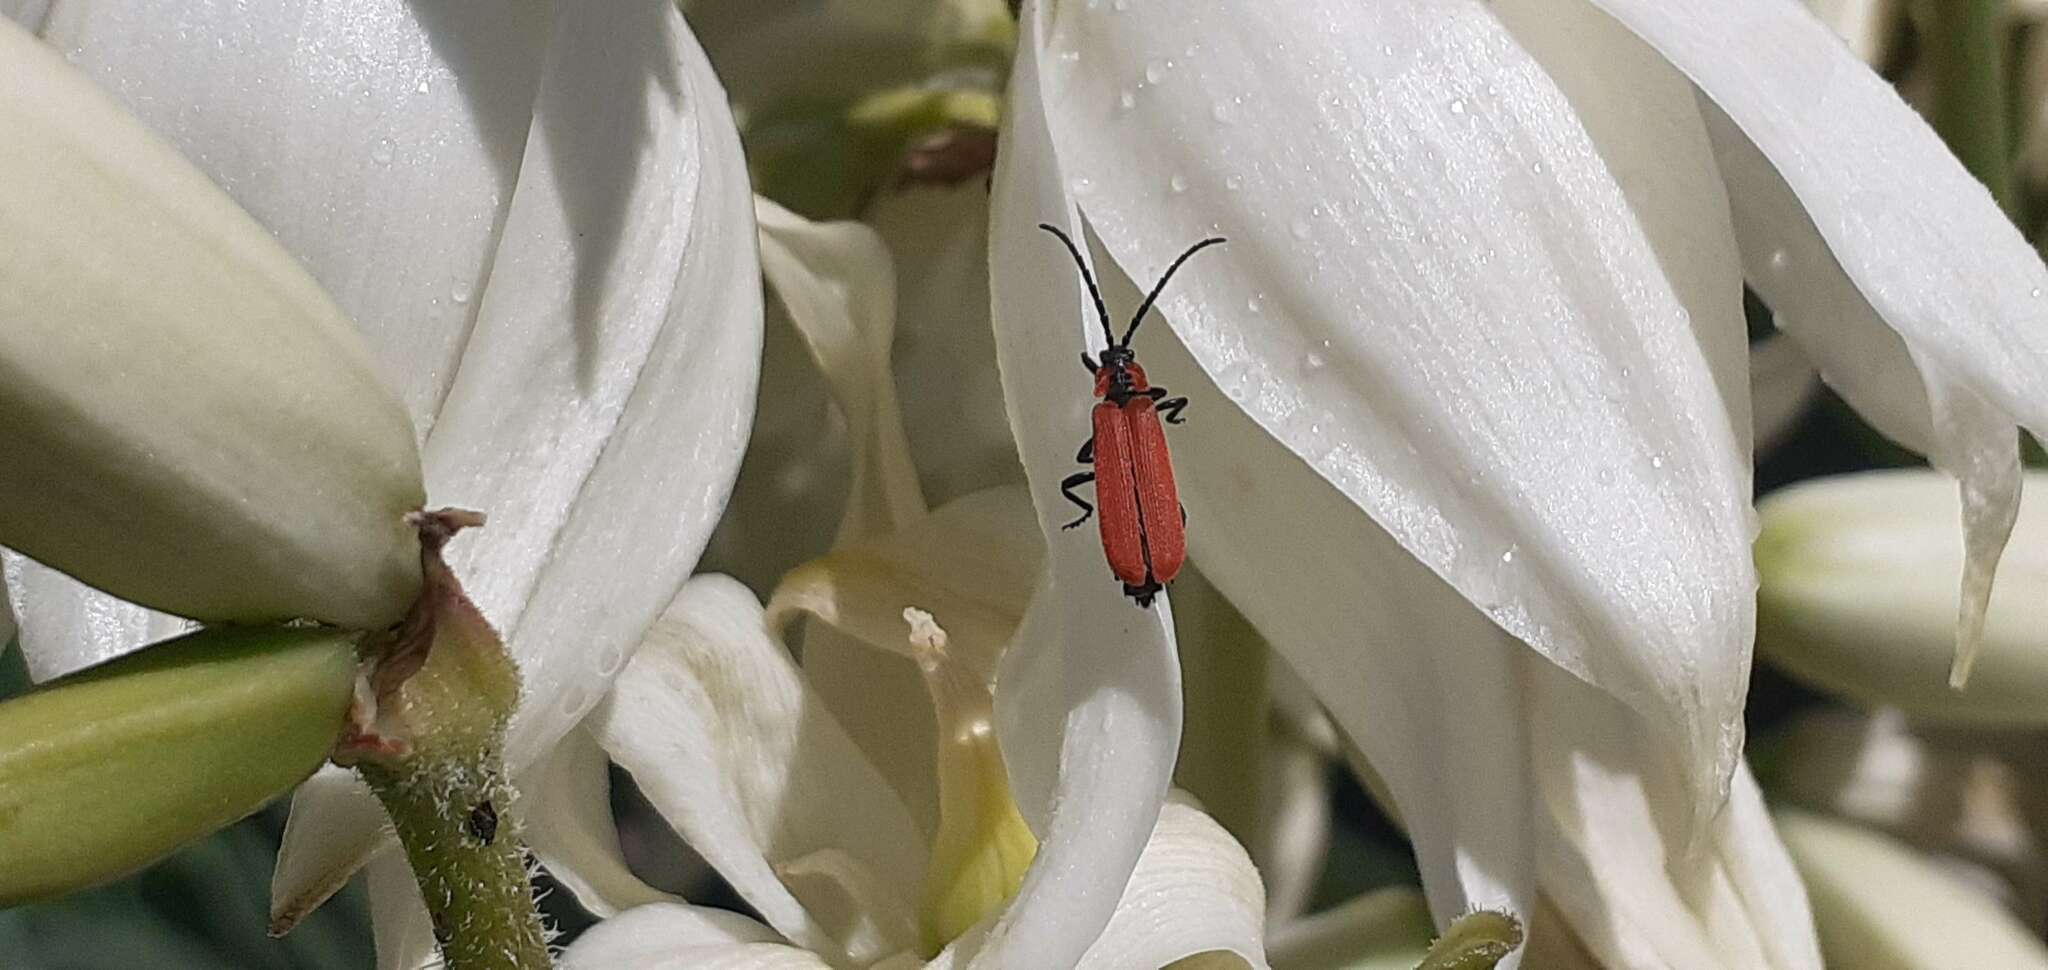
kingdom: Animalia
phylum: Arthropoda
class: Insecta
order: Coleoptera
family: Lycidae
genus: Lygistopterus
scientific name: Lygistopterus sanguineus
